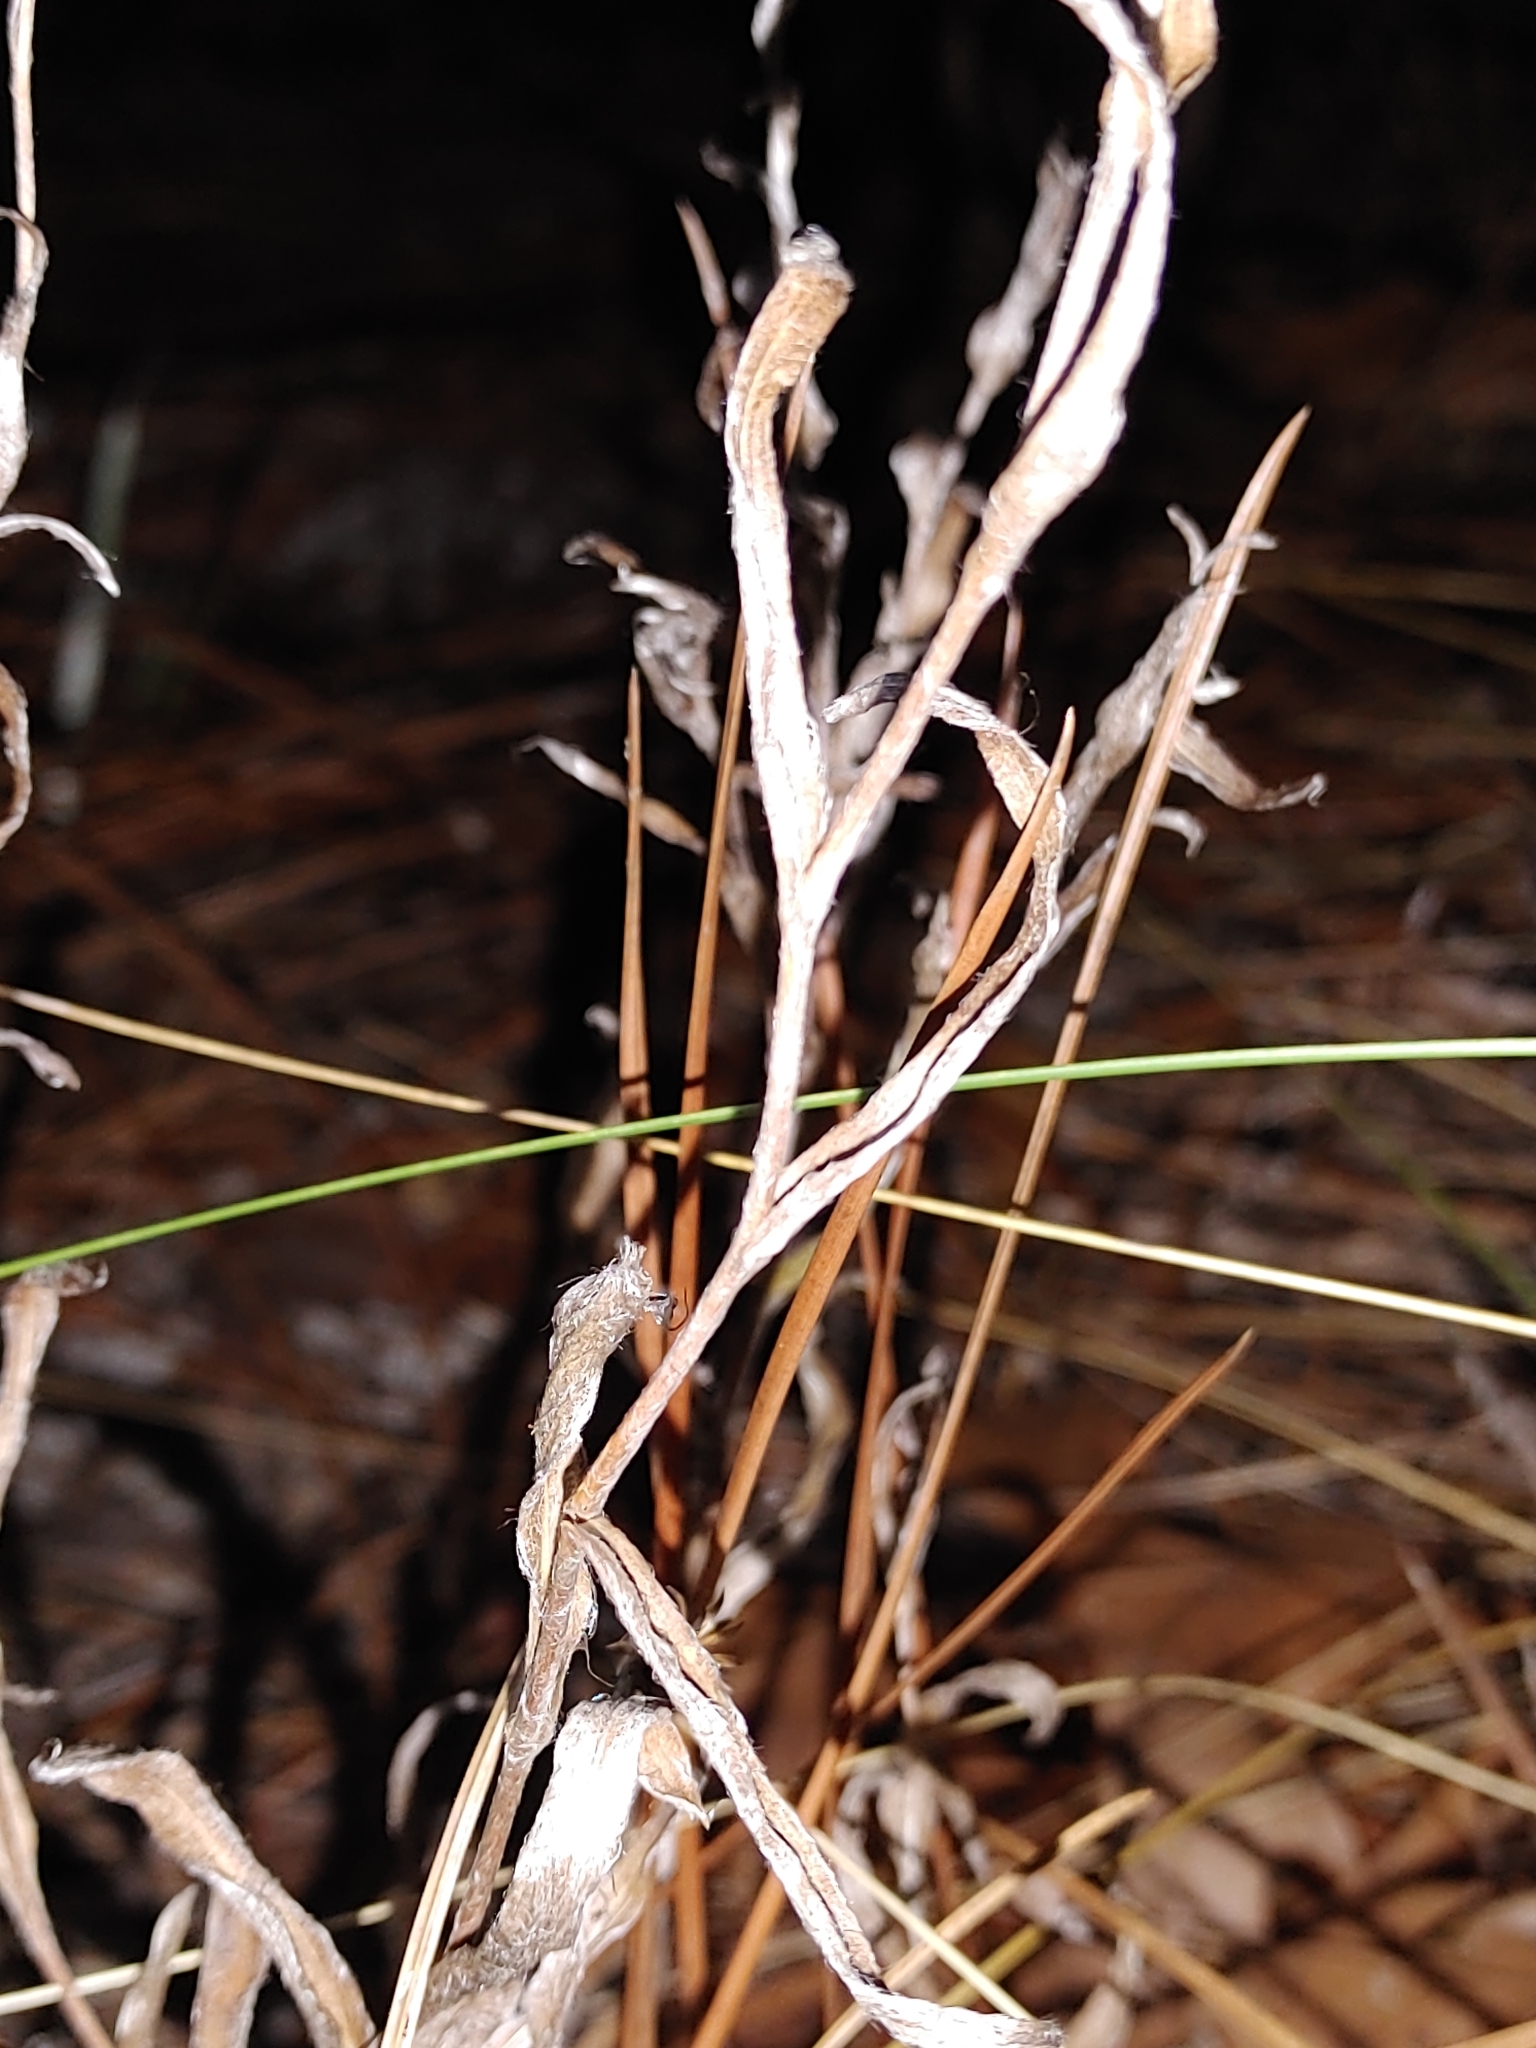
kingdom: Plantae
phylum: Tracheophyta
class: Magnoliopsida
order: Asterales
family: Asteraceae
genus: Pityopsis
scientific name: Pityopsis flexuosa
